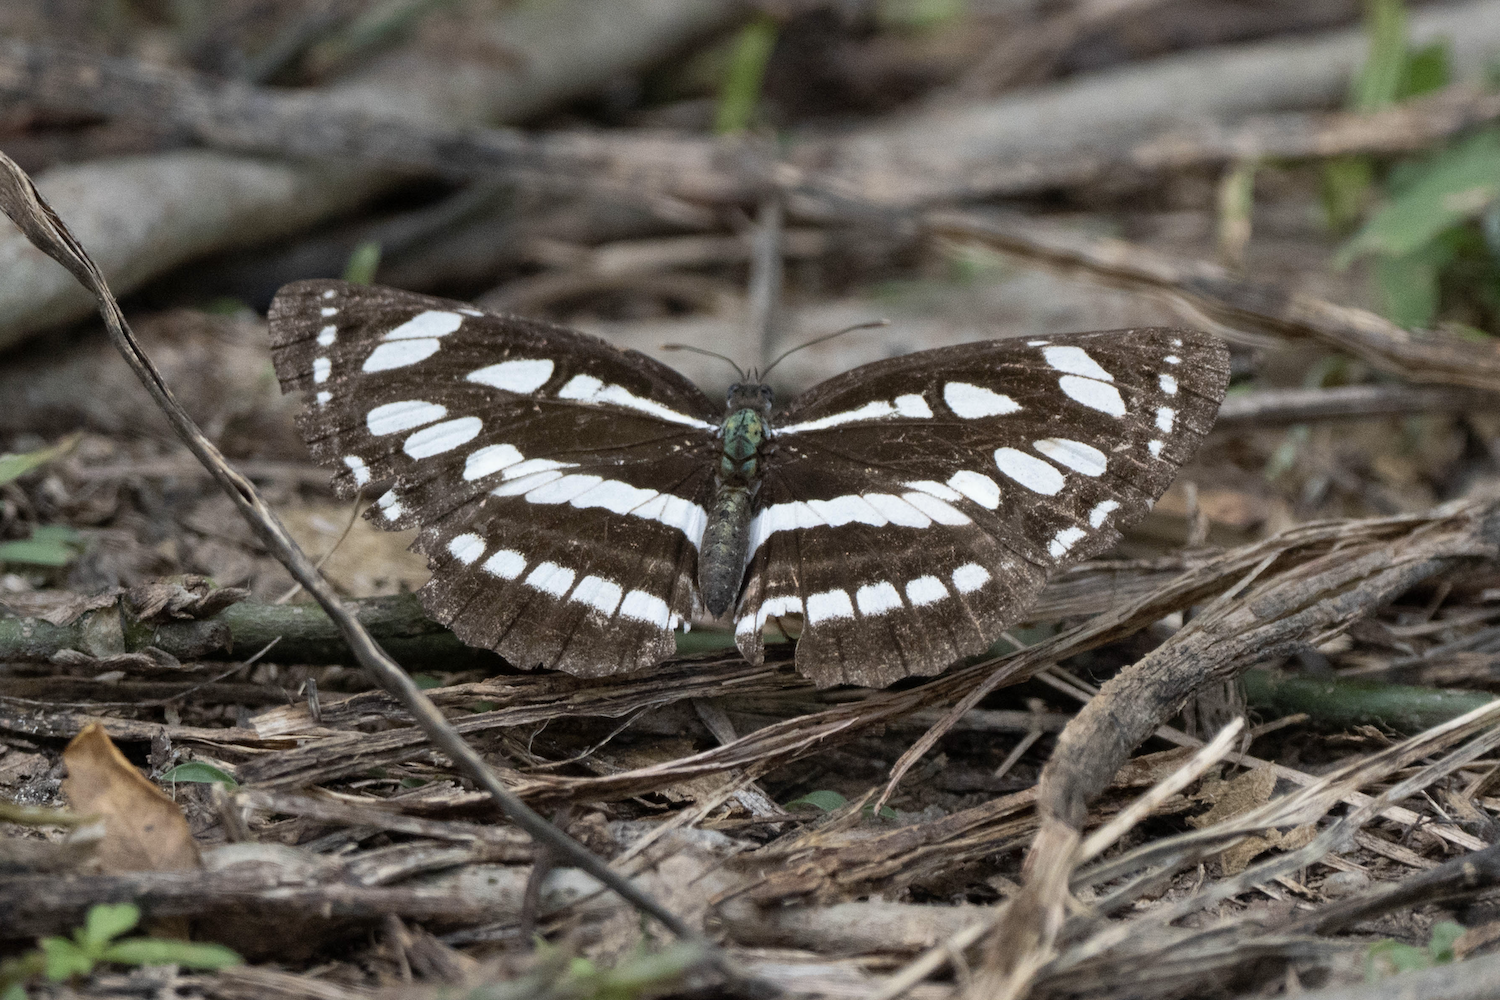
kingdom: Animalia
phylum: Arthropoda
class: Insecta
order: Lepidoptera
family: Nymphalidae
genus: Neptis
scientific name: Neptis hylas
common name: Common sailer
